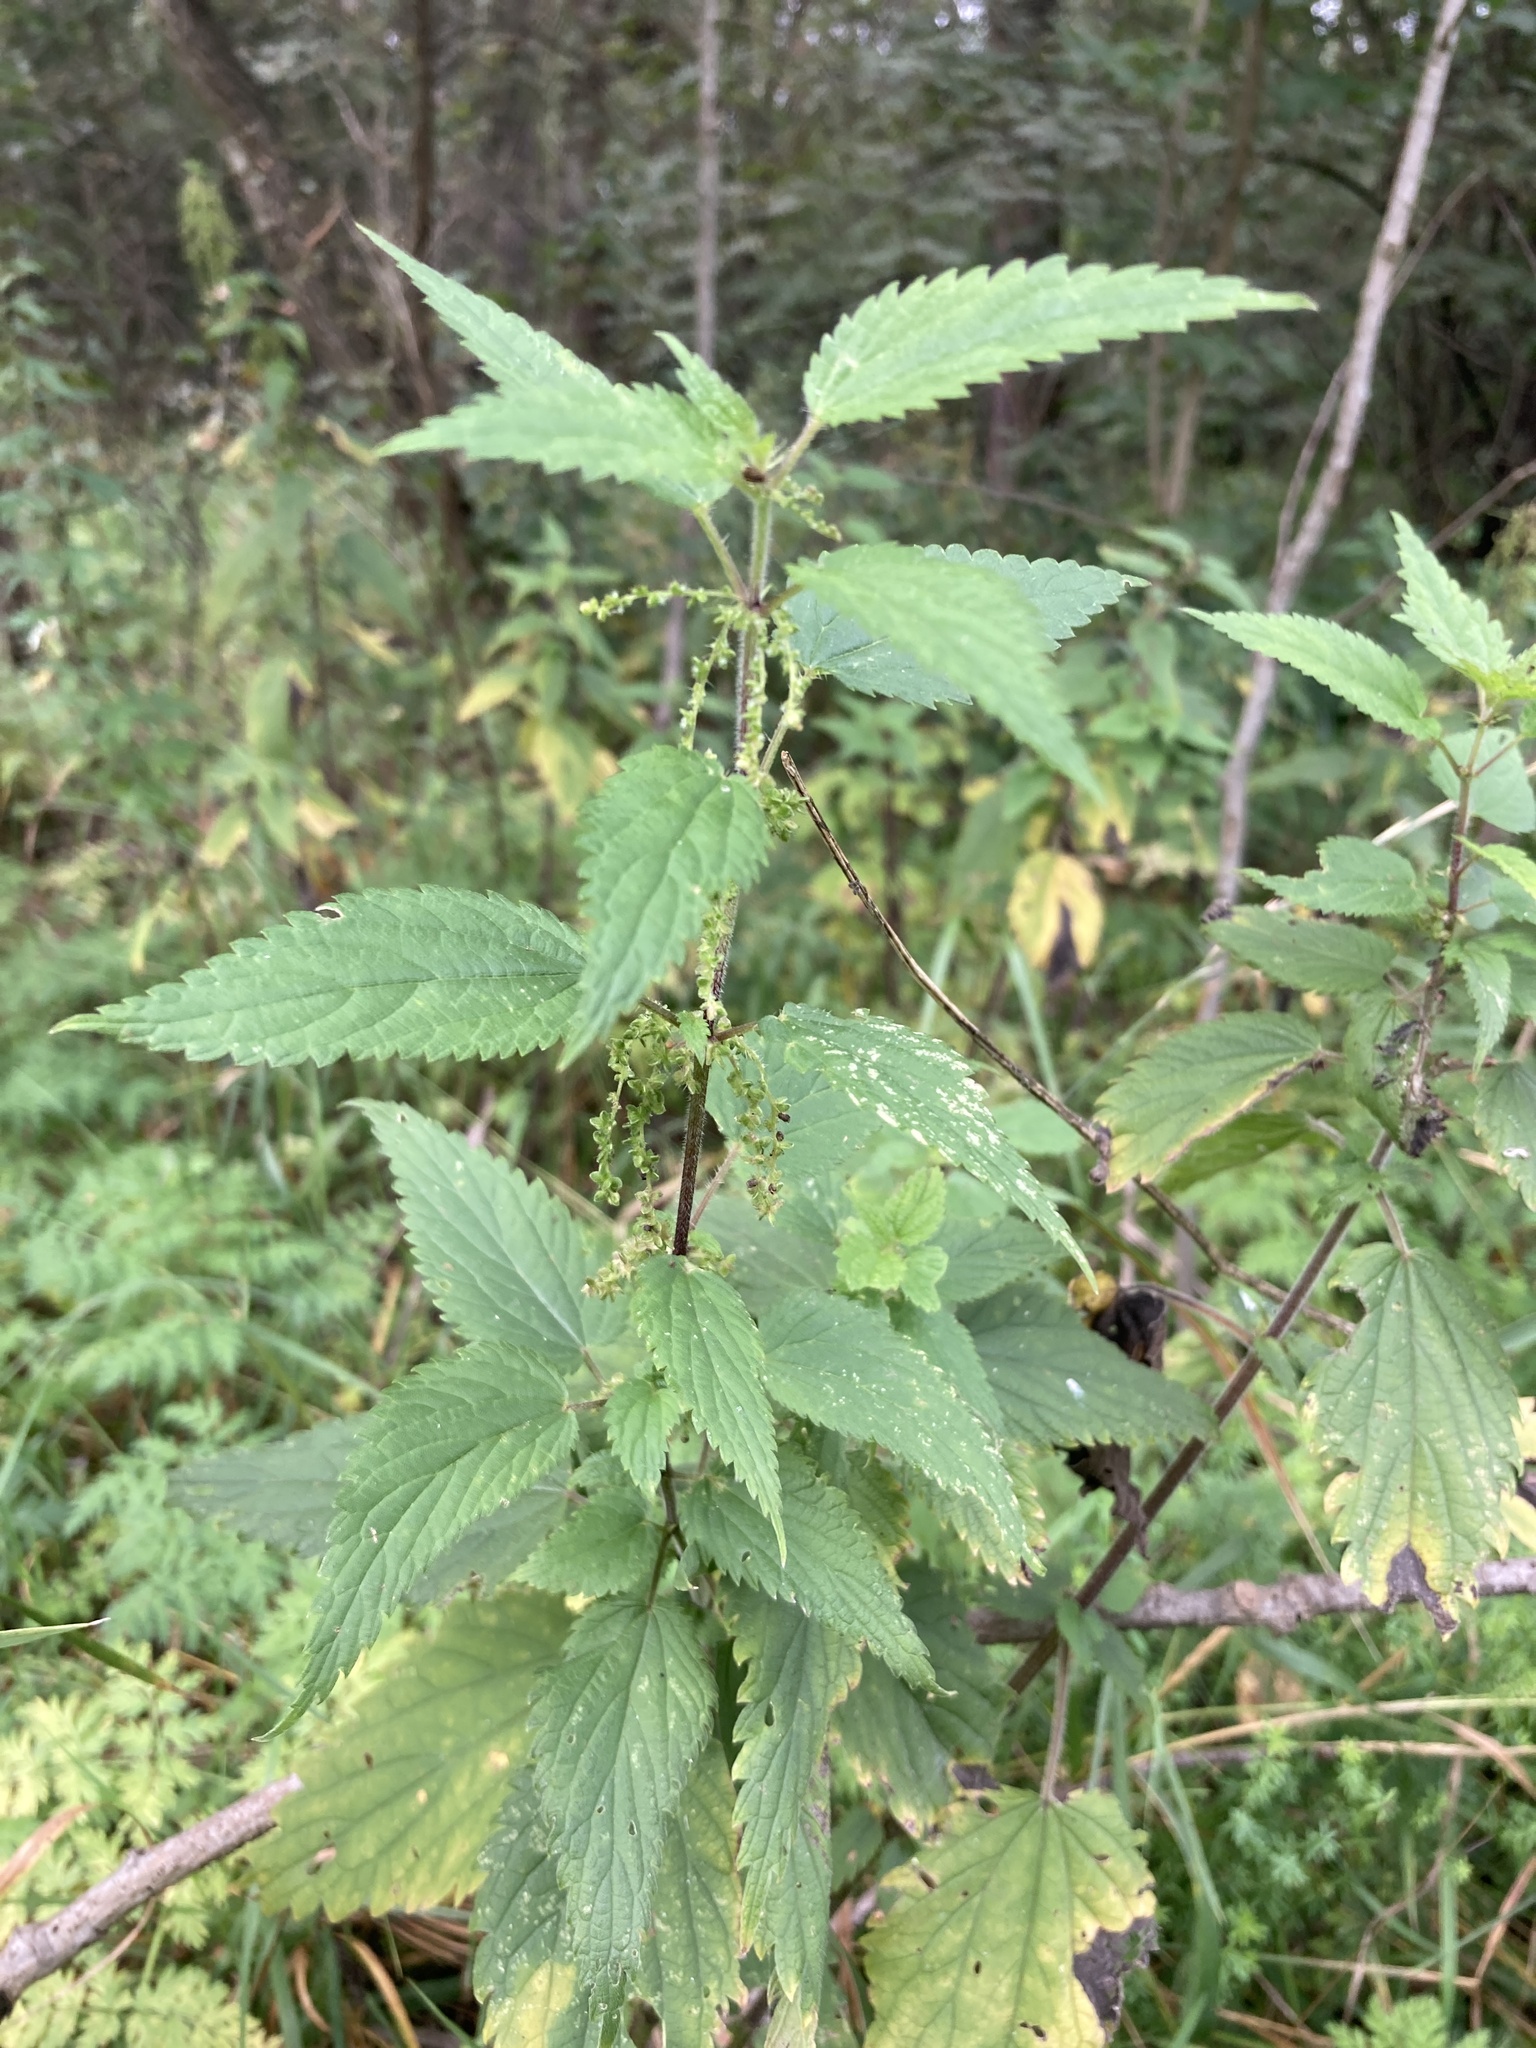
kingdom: Plantae
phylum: Tracheophyta
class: Magnoliopsida
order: Rosales
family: Urticaceae
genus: Urtica
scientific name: Urtica dioica
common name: Common nettle
